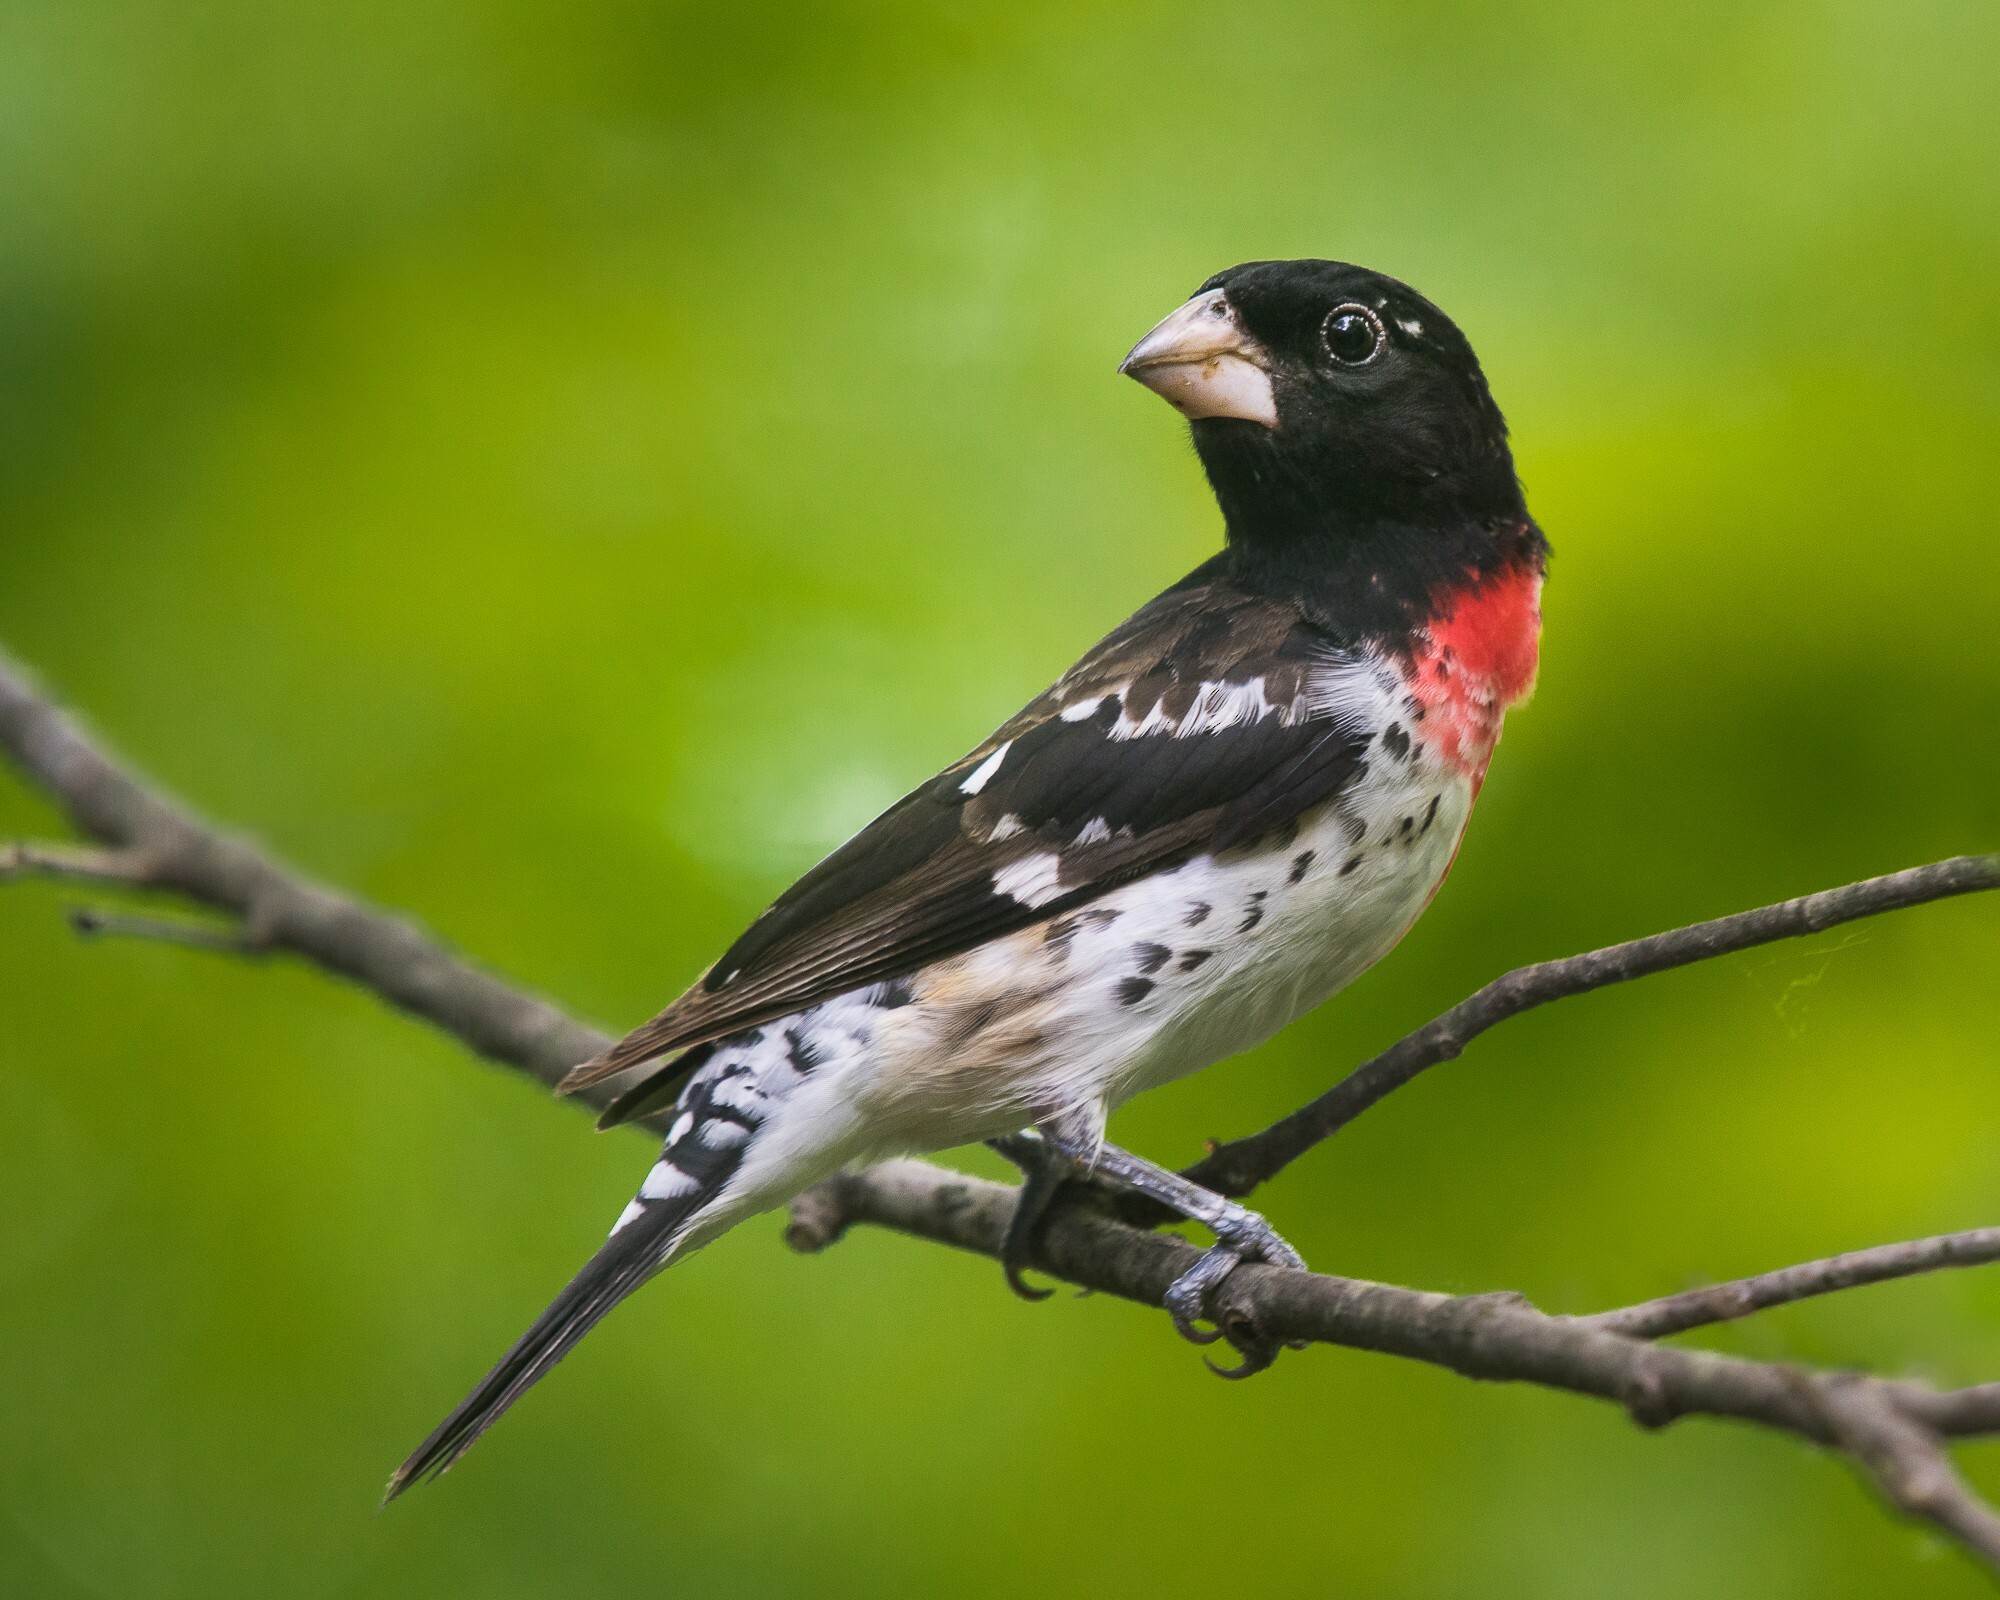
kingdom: Animalia
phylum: Chordata
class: Aves
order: Passeriformes
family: Cardinalidae
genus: Pheucticus
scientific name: Pheucticus ludovicianus
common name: Rose-breasted grosbeak
